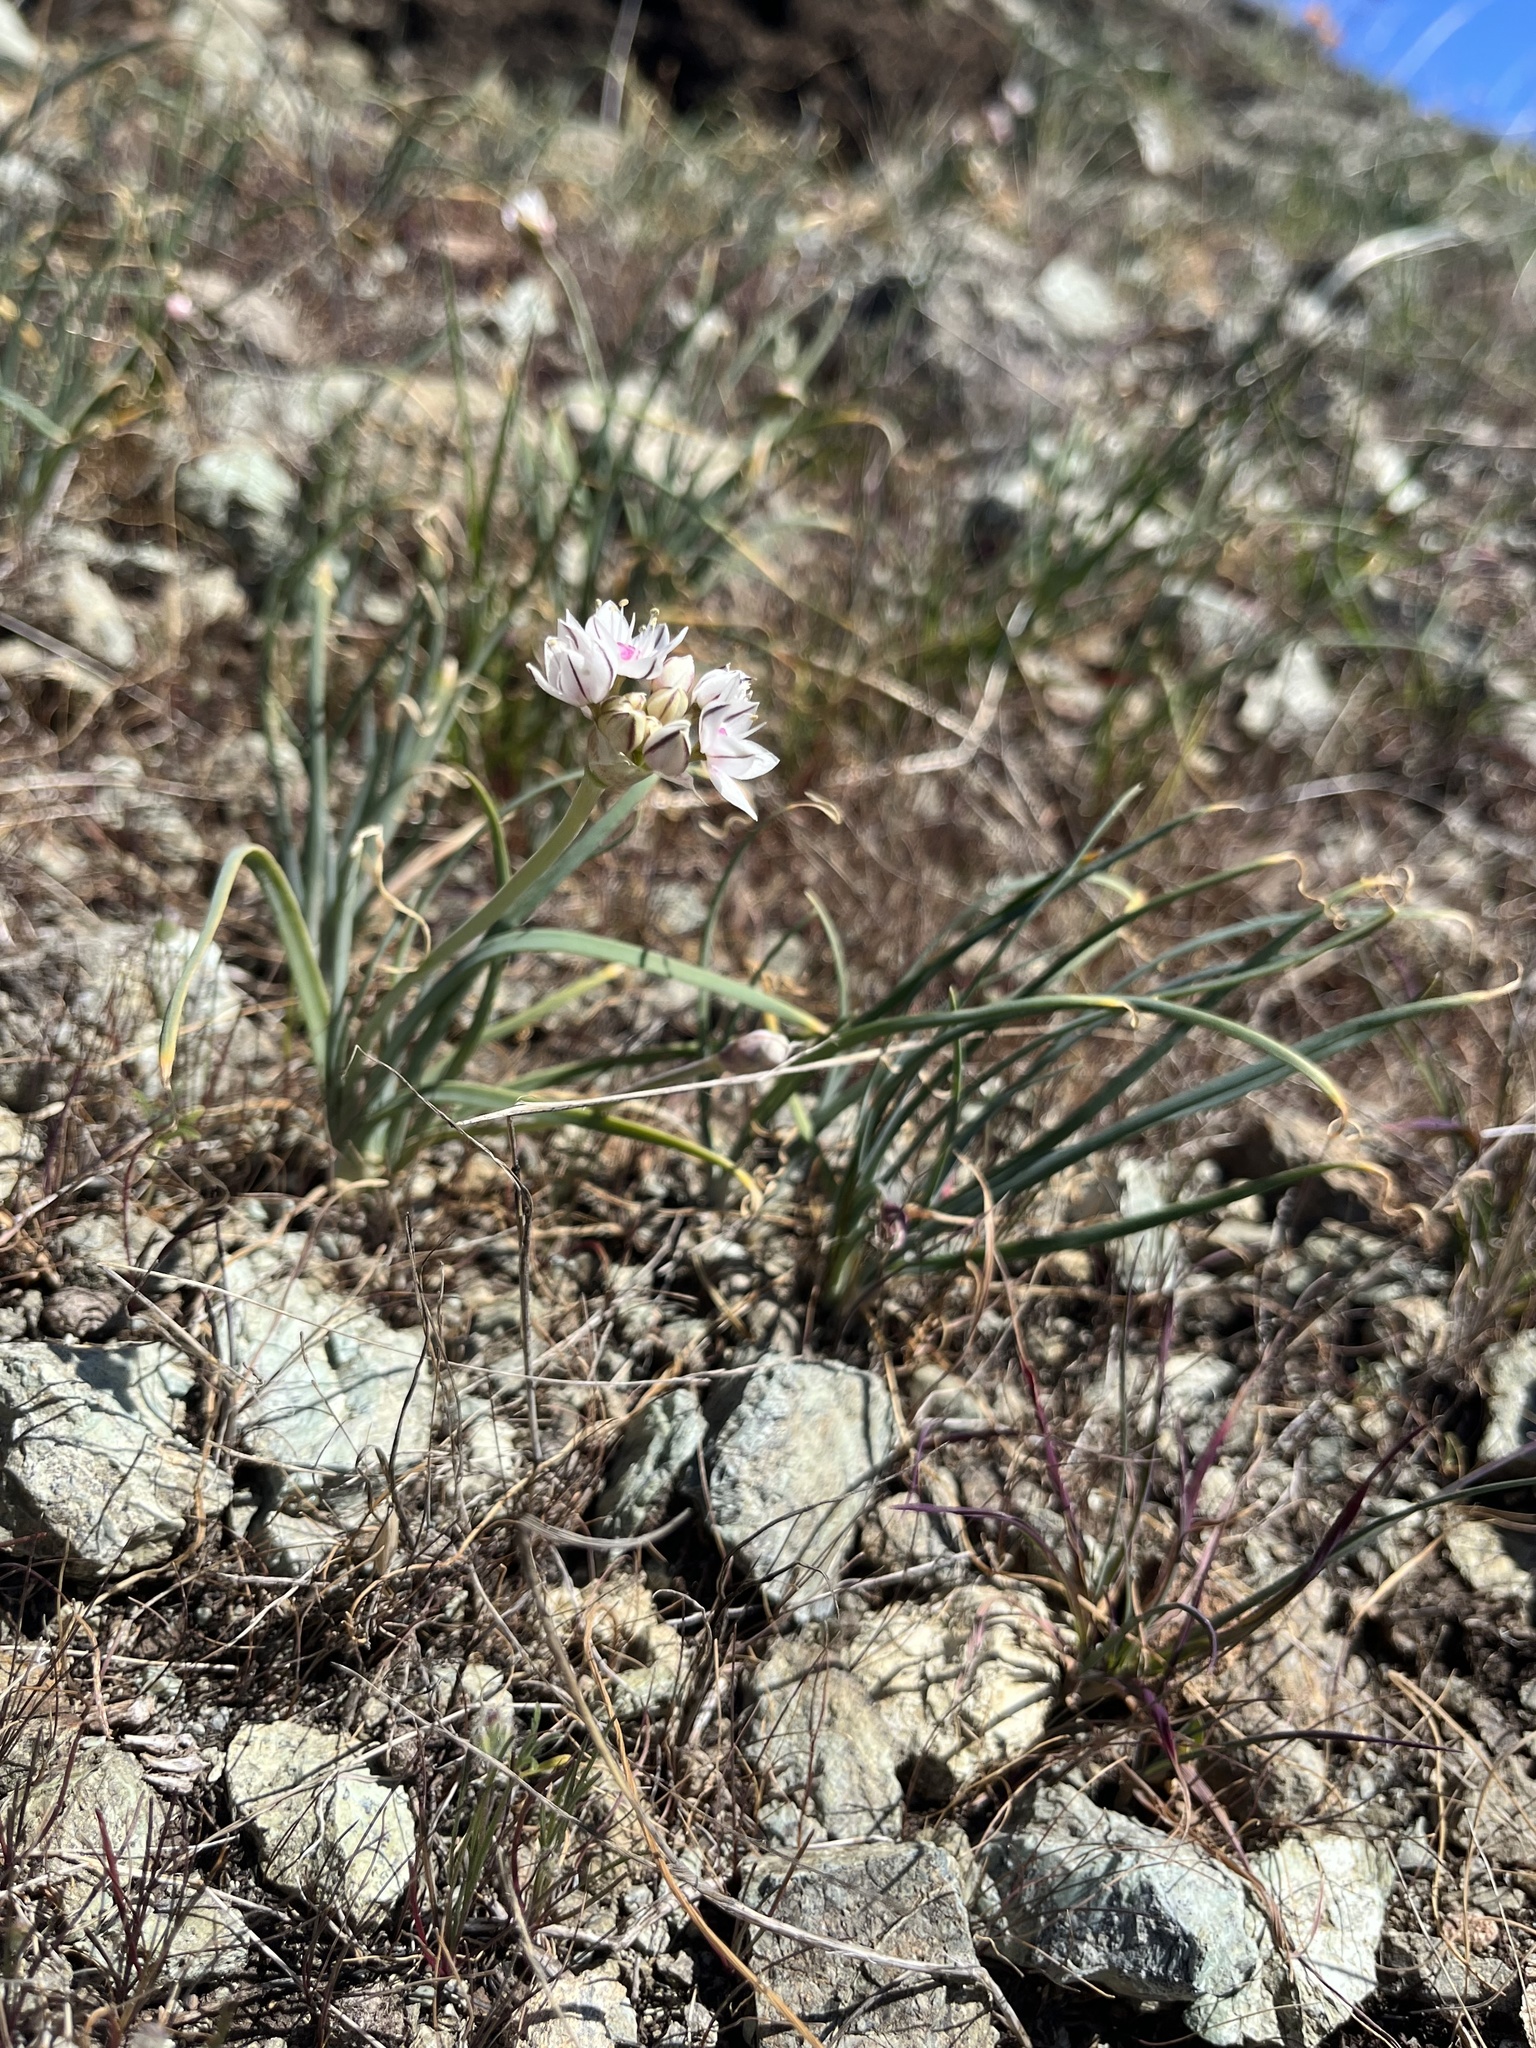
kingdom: Plantae
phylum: Tracheophyta
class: Liliopsida
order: Asparagales
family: Amaryllidaceae
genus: Allium
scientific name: Allium haematochiton
